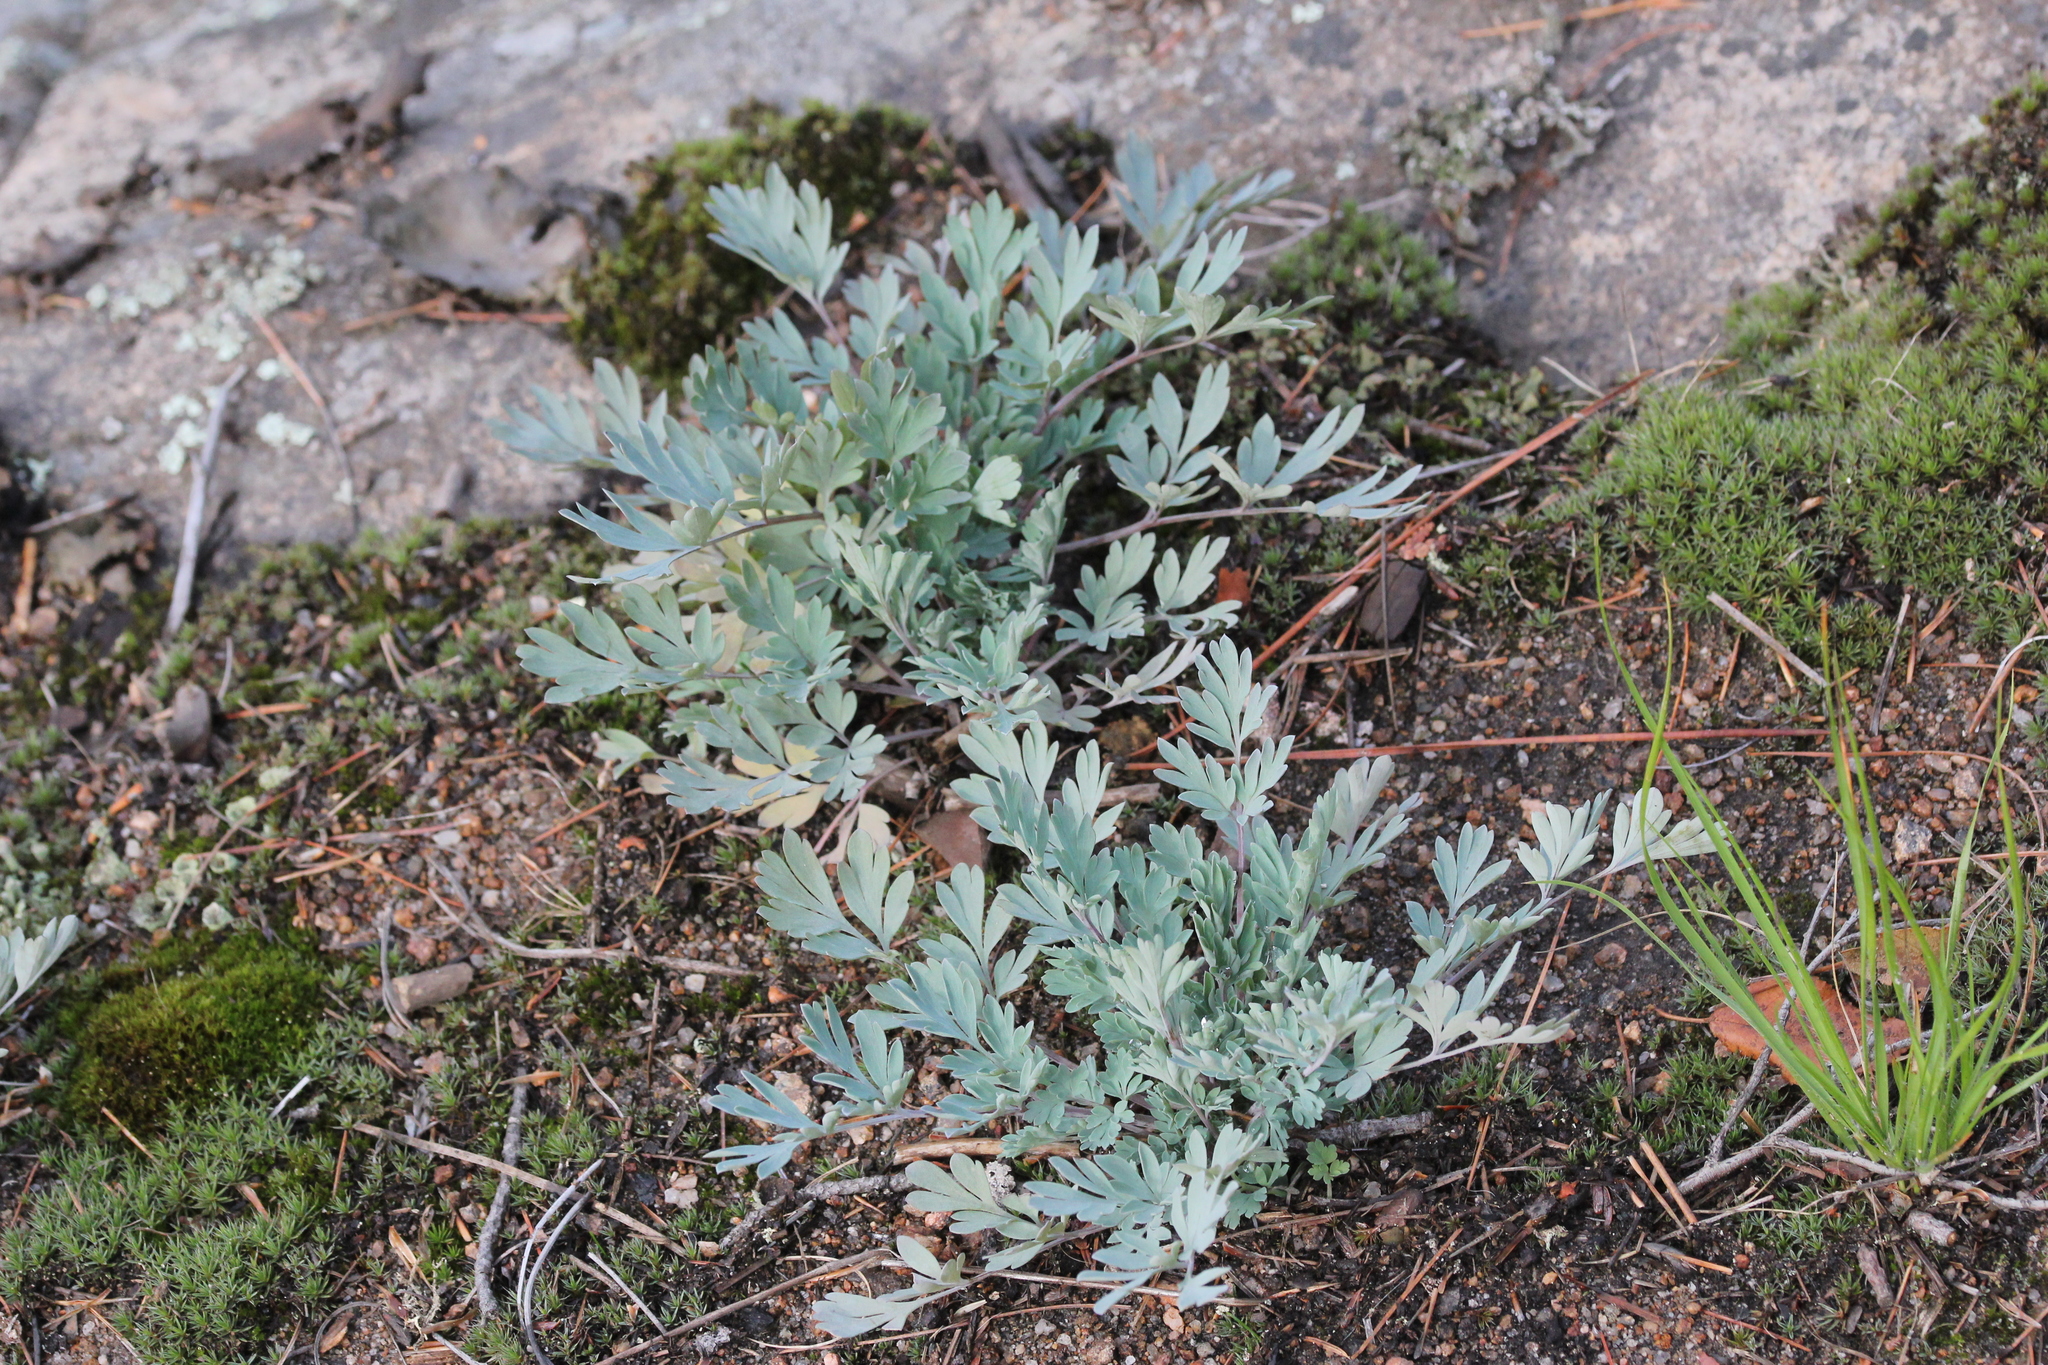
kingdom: Plantae
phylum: Tracheophyta
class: Magnoliopsida
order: Ranunculales
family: Papaveraceae
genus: Capnoides
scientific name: Capnoides sempervirens
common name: Rock harlequin
